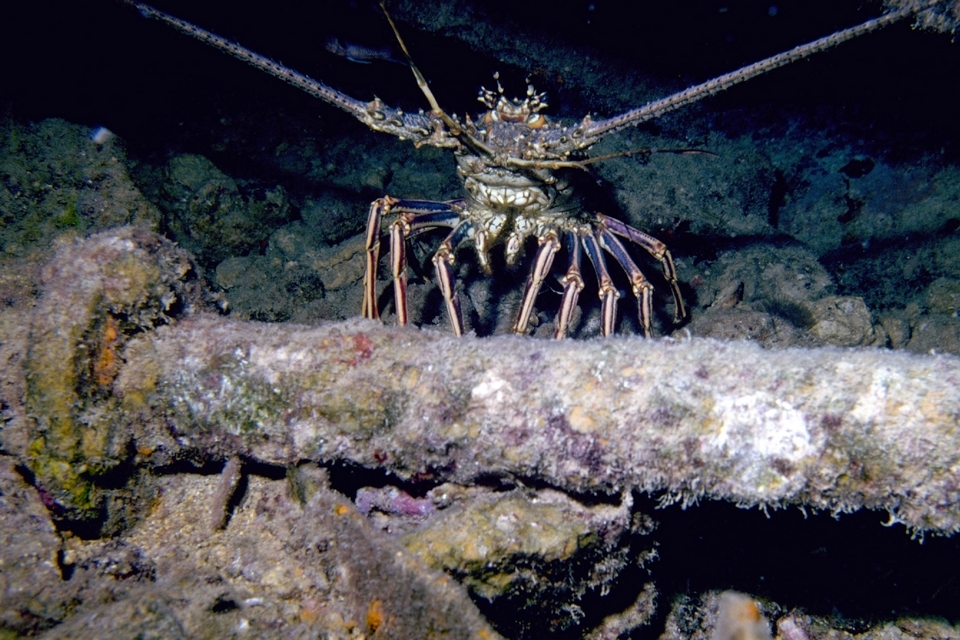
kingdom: Animalia
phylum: Arthropoda
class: Malacostraca
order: Decapoda
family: Palinuridae
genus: Panulirus
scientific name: Panulirus argus
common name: Caribbean spiny lobster
